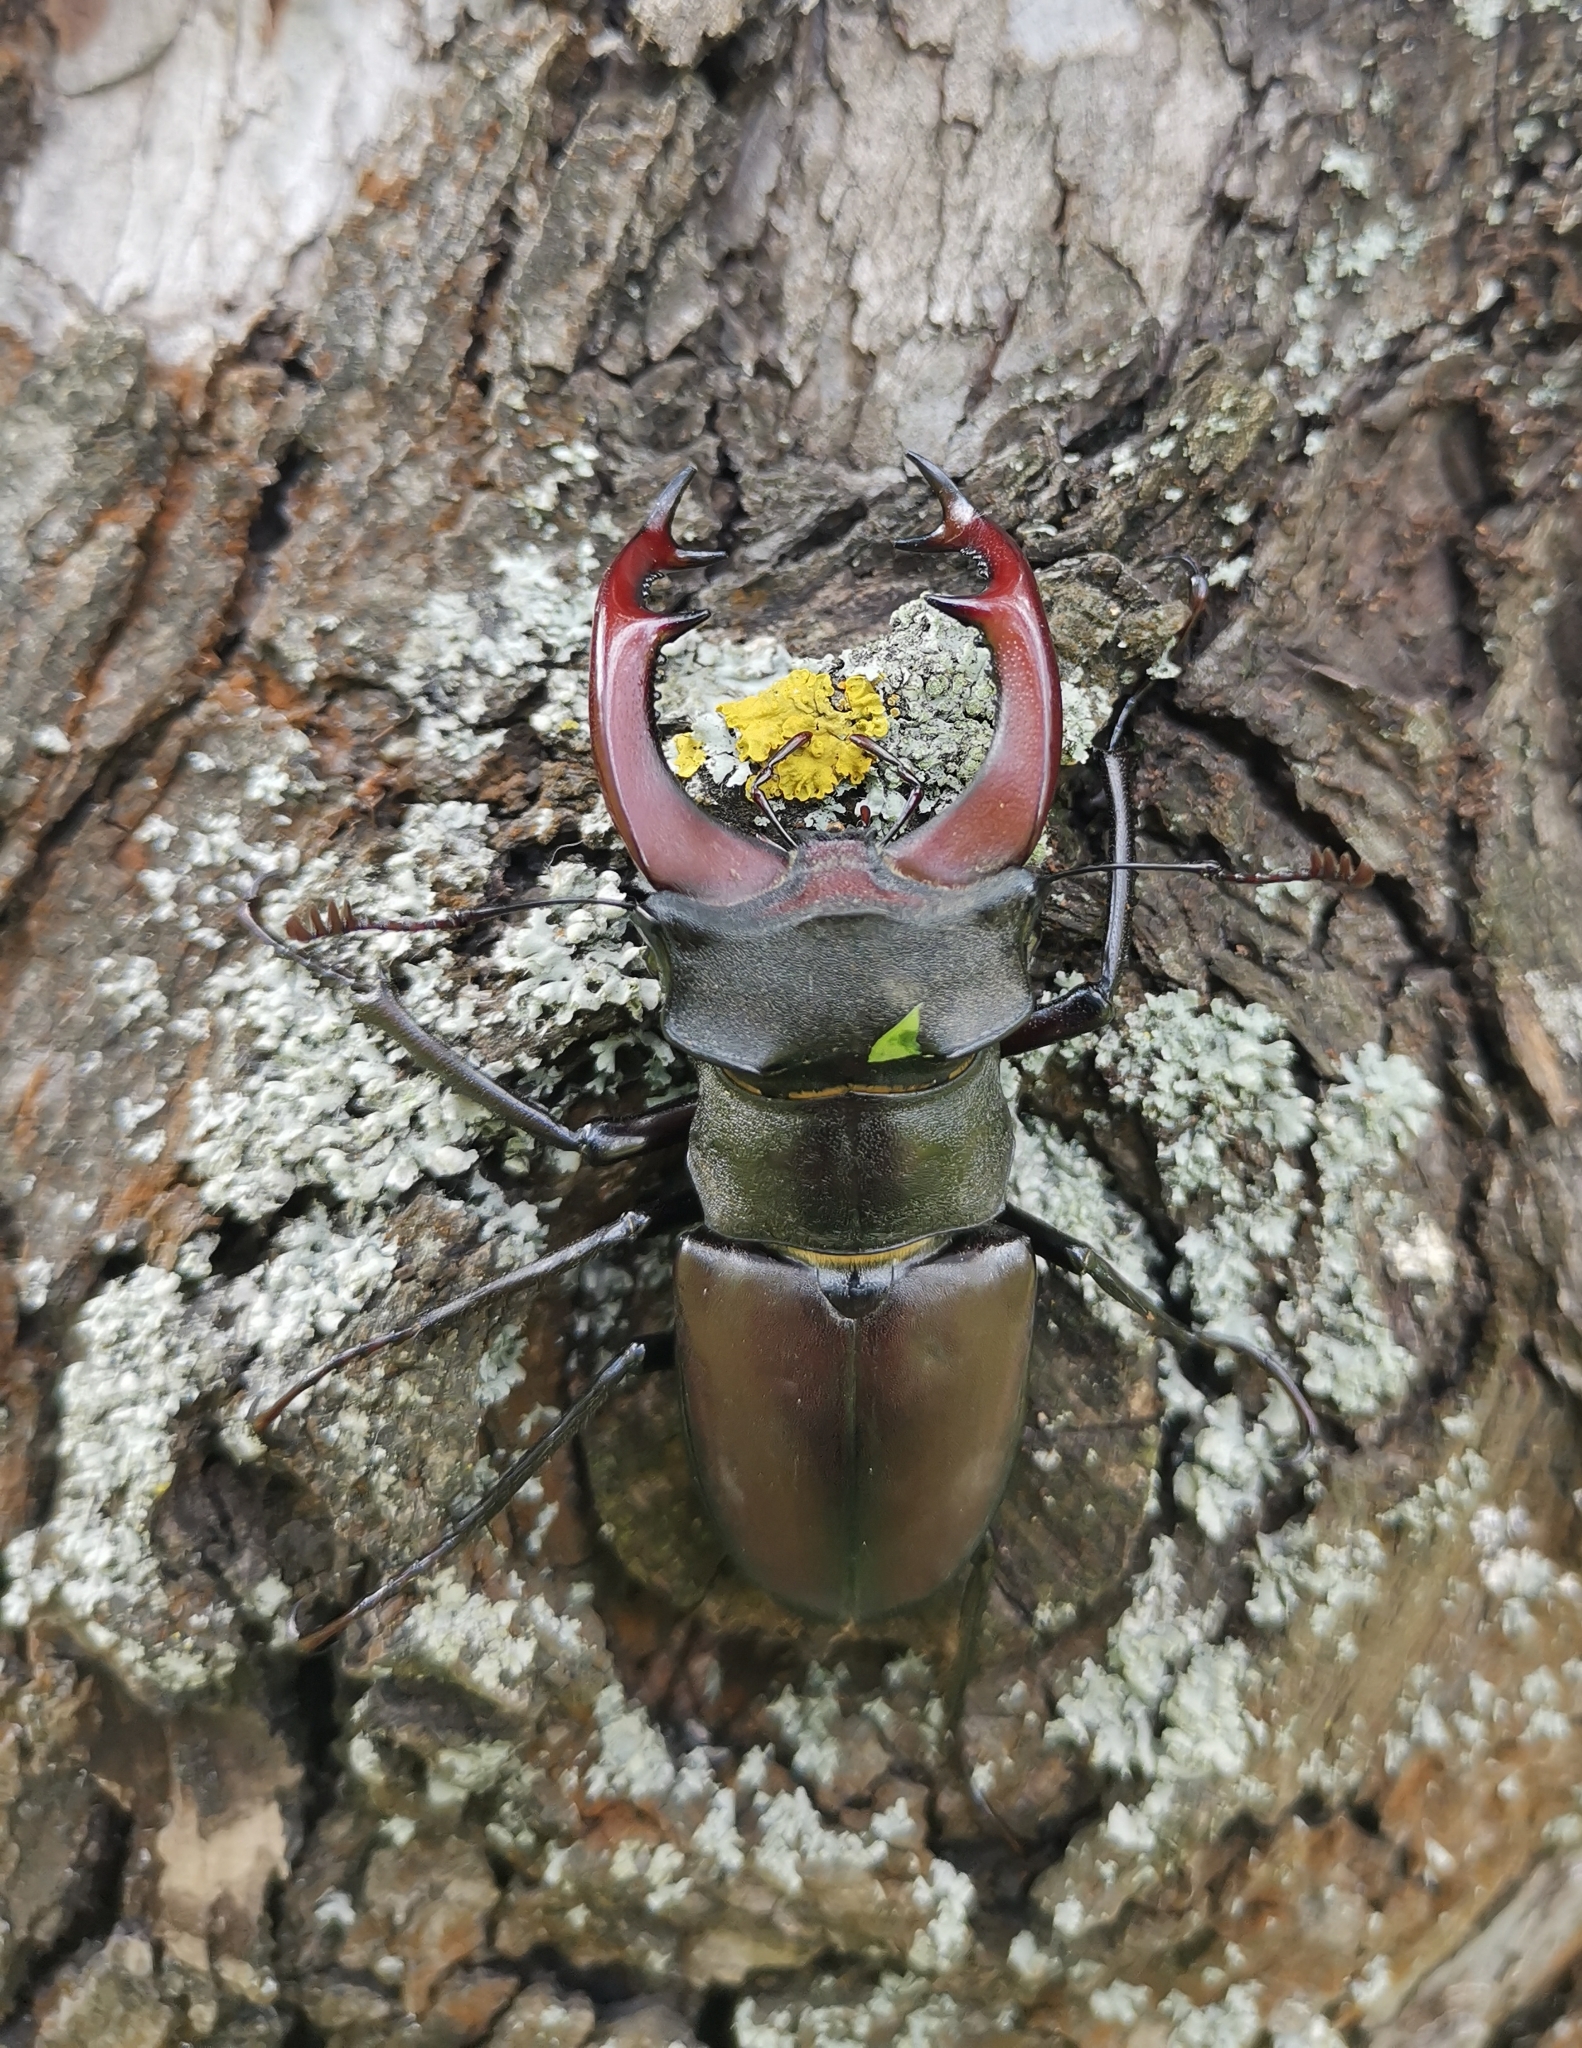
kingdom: Animalia
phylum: Arthropoda
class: Insecta
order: Coleoptera
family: Lucanidae
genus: Lucanus
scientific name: Lucanus cervus
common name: Stag beetle
